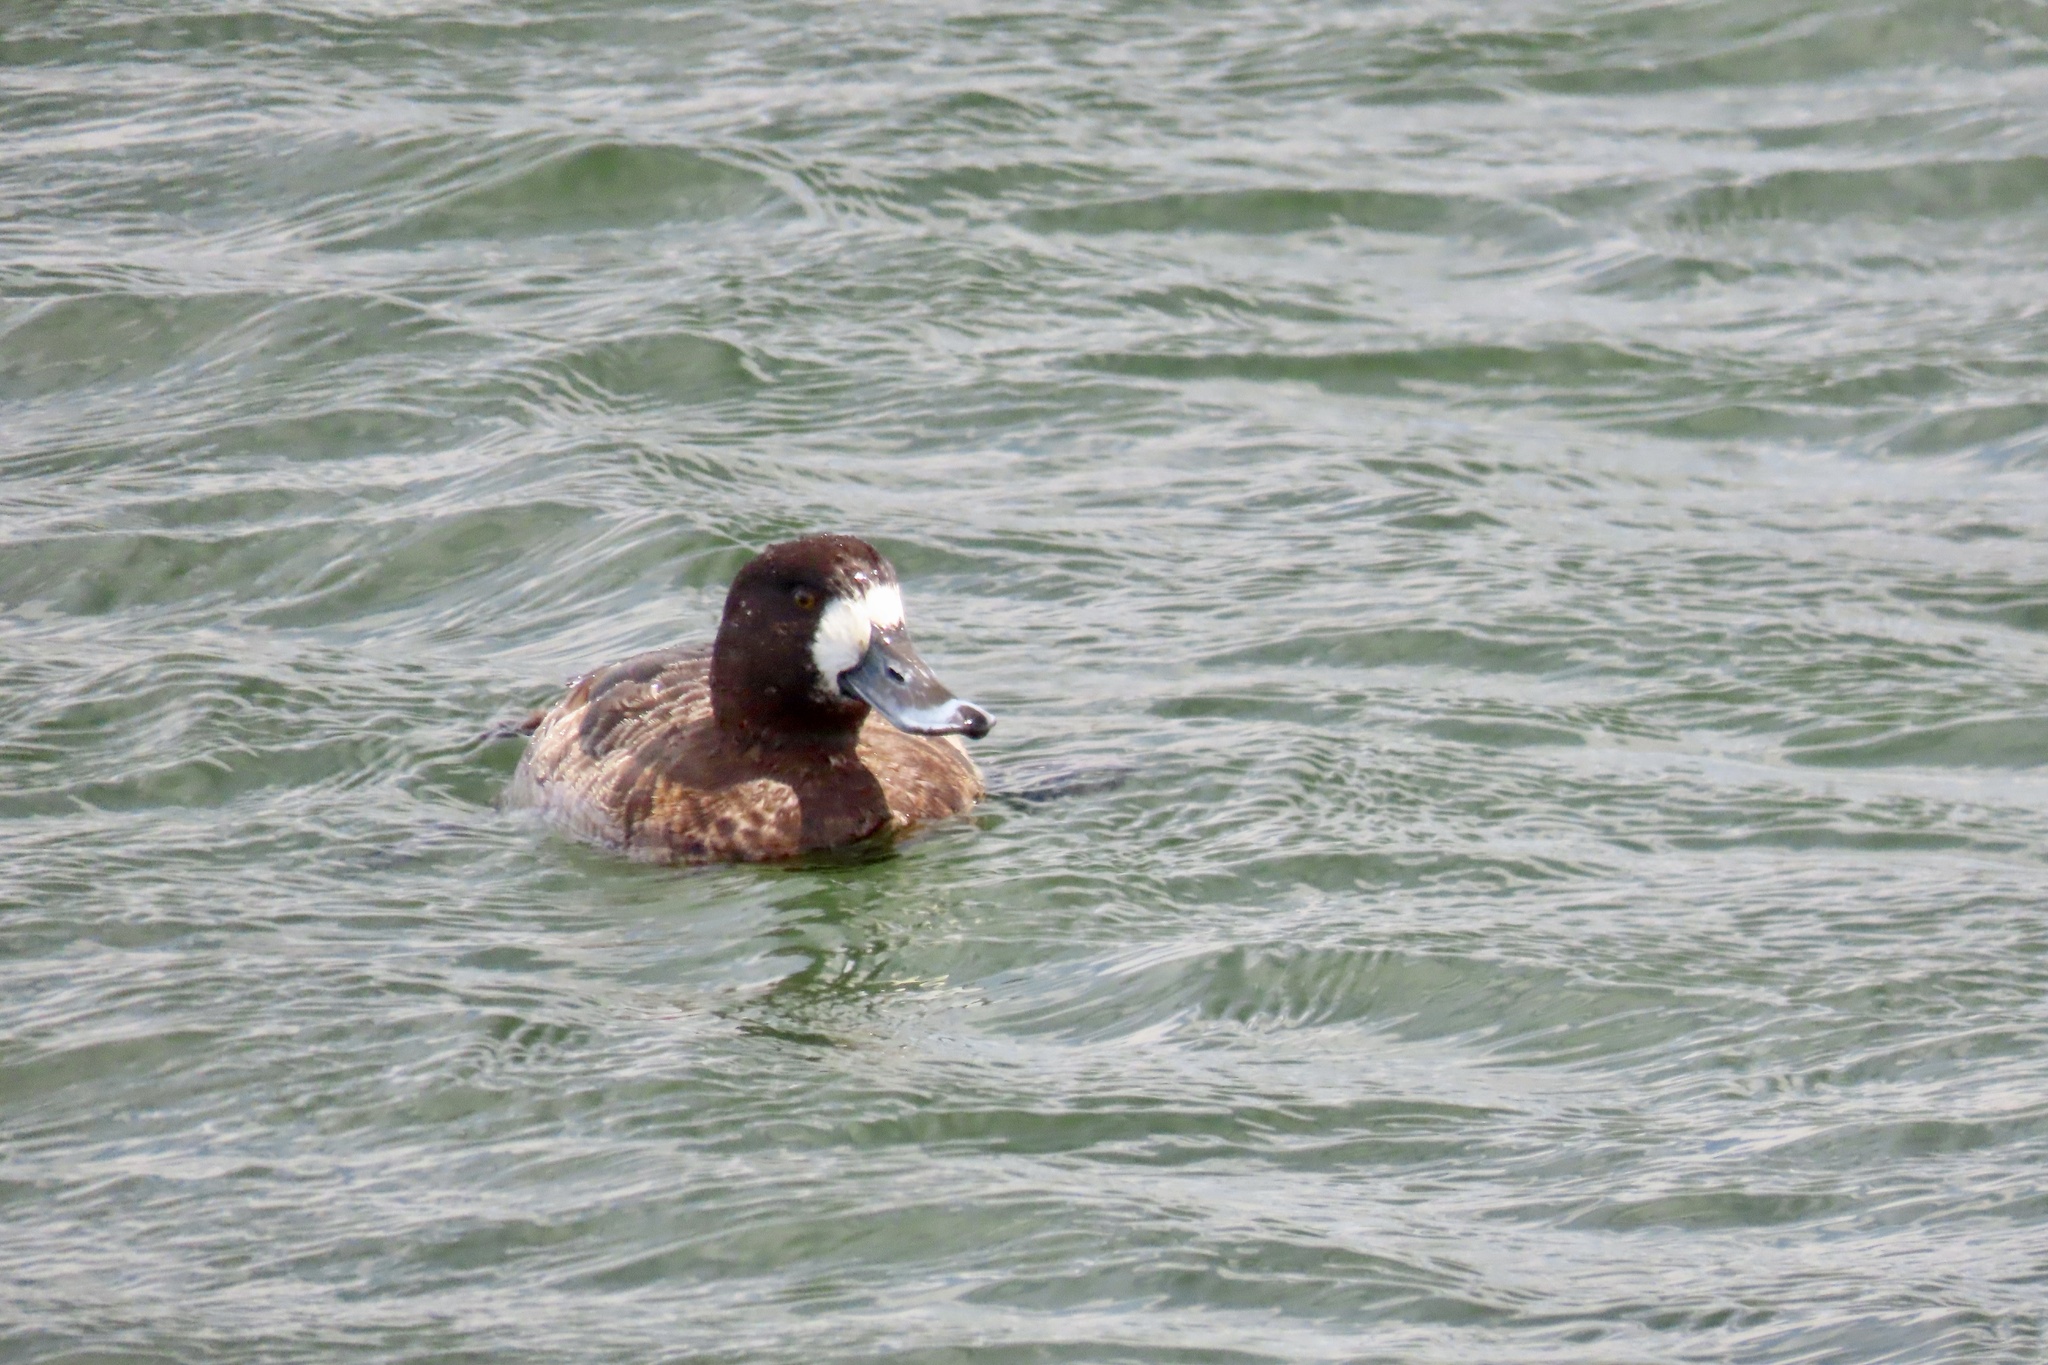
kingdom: Animalia
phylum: Chordata
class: Aves
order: Anseriformes
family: Anatidae
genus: Aythya
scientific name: Aythya marila
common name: Greater scaup
